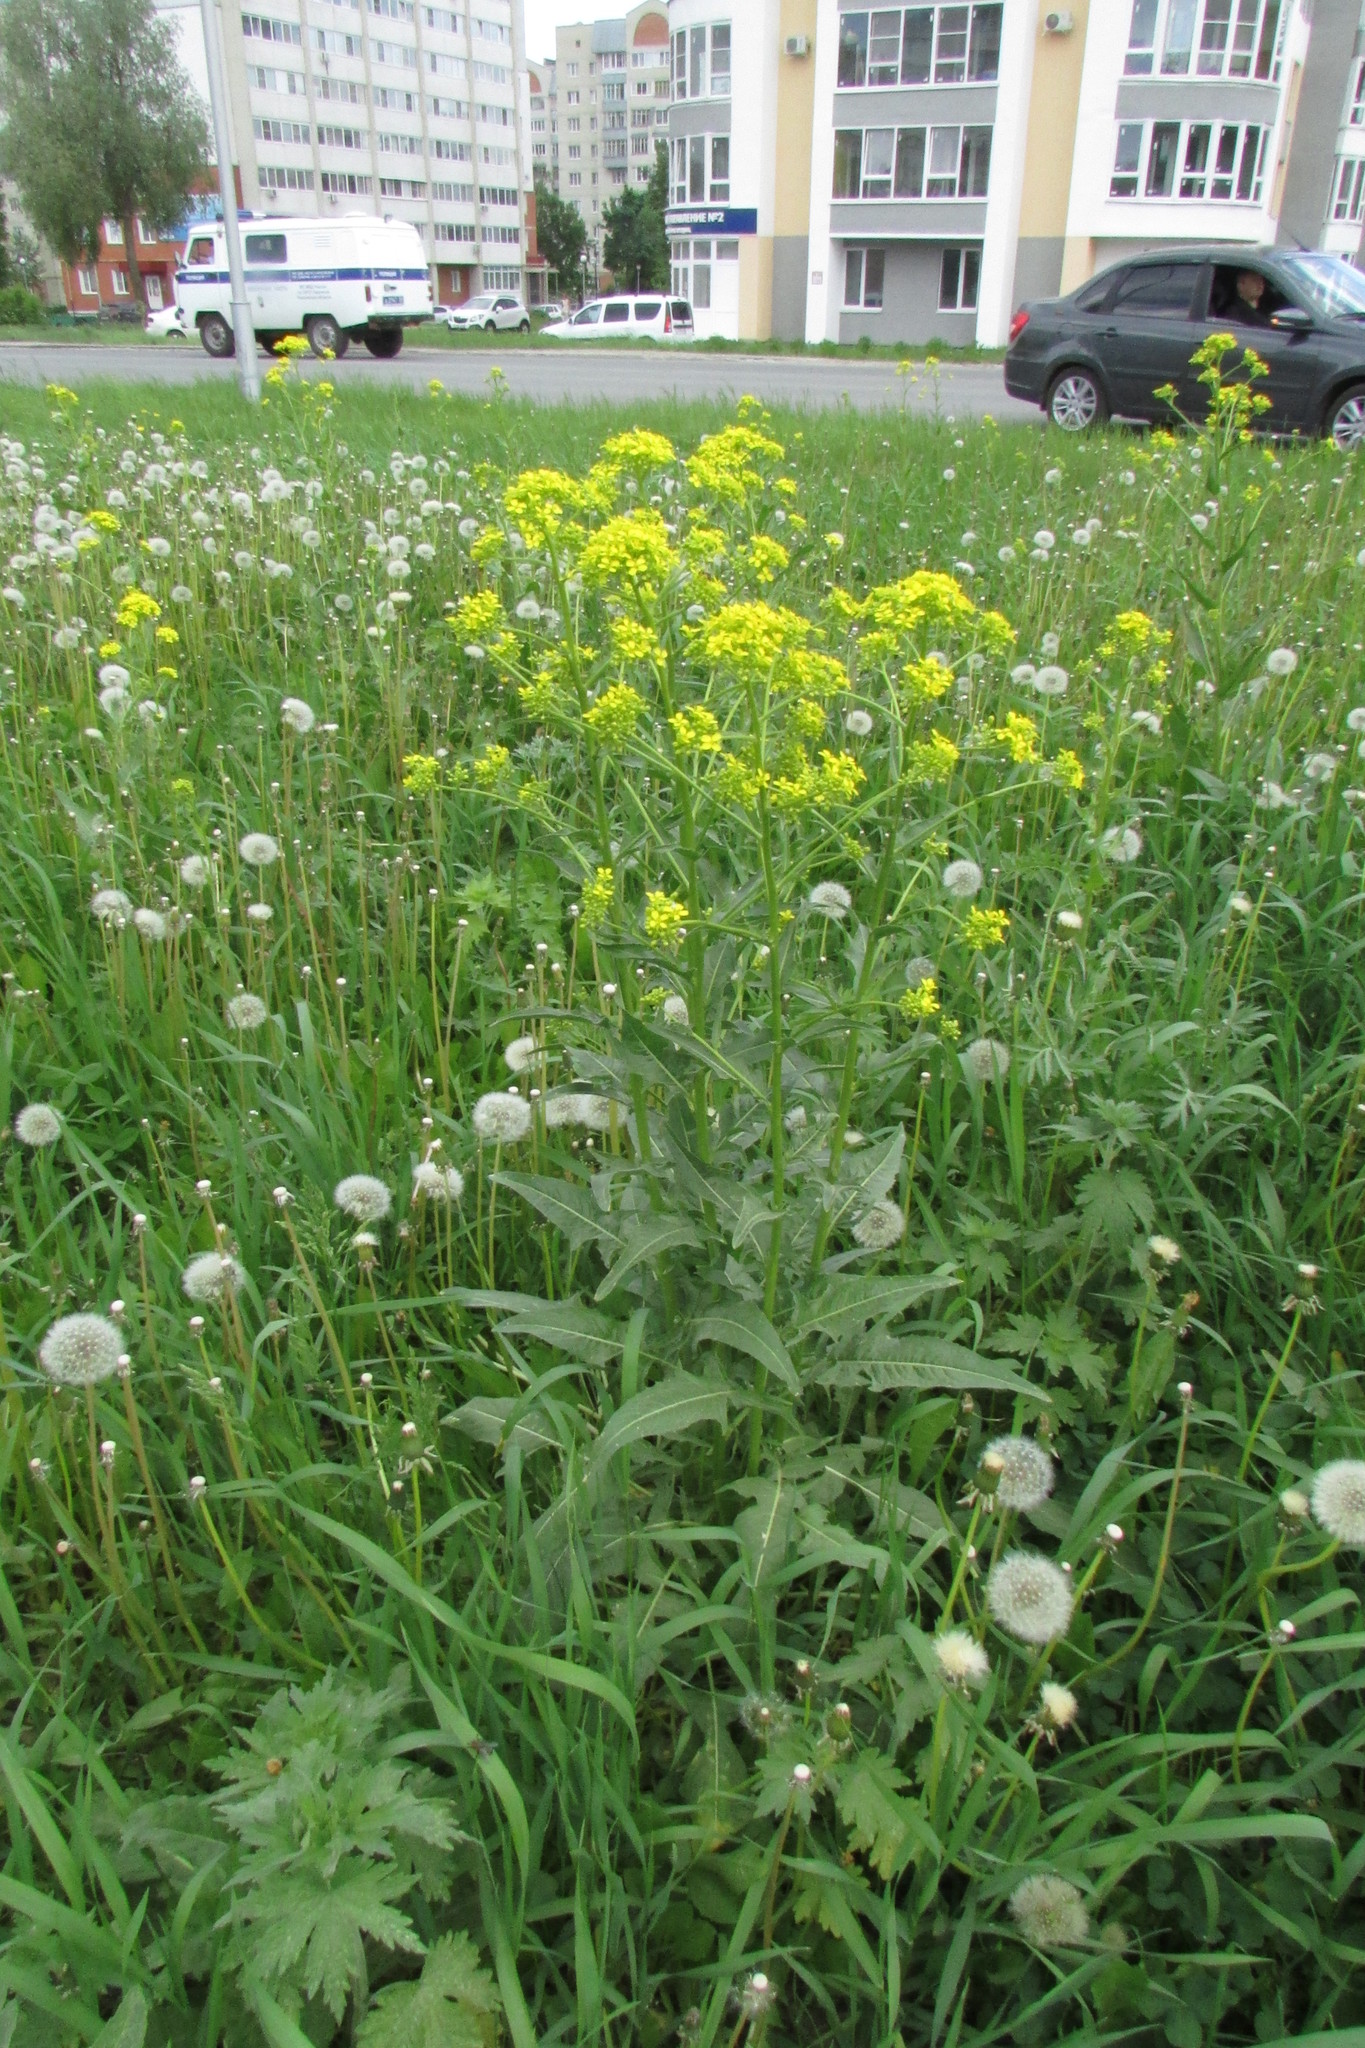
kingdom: Plantae
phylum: Tracheophyta
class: Magnoliopsida
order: Brassicales
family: Brassicaceae
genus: Bunias
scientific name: Bunias orientalis
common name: Warty-cabbage
